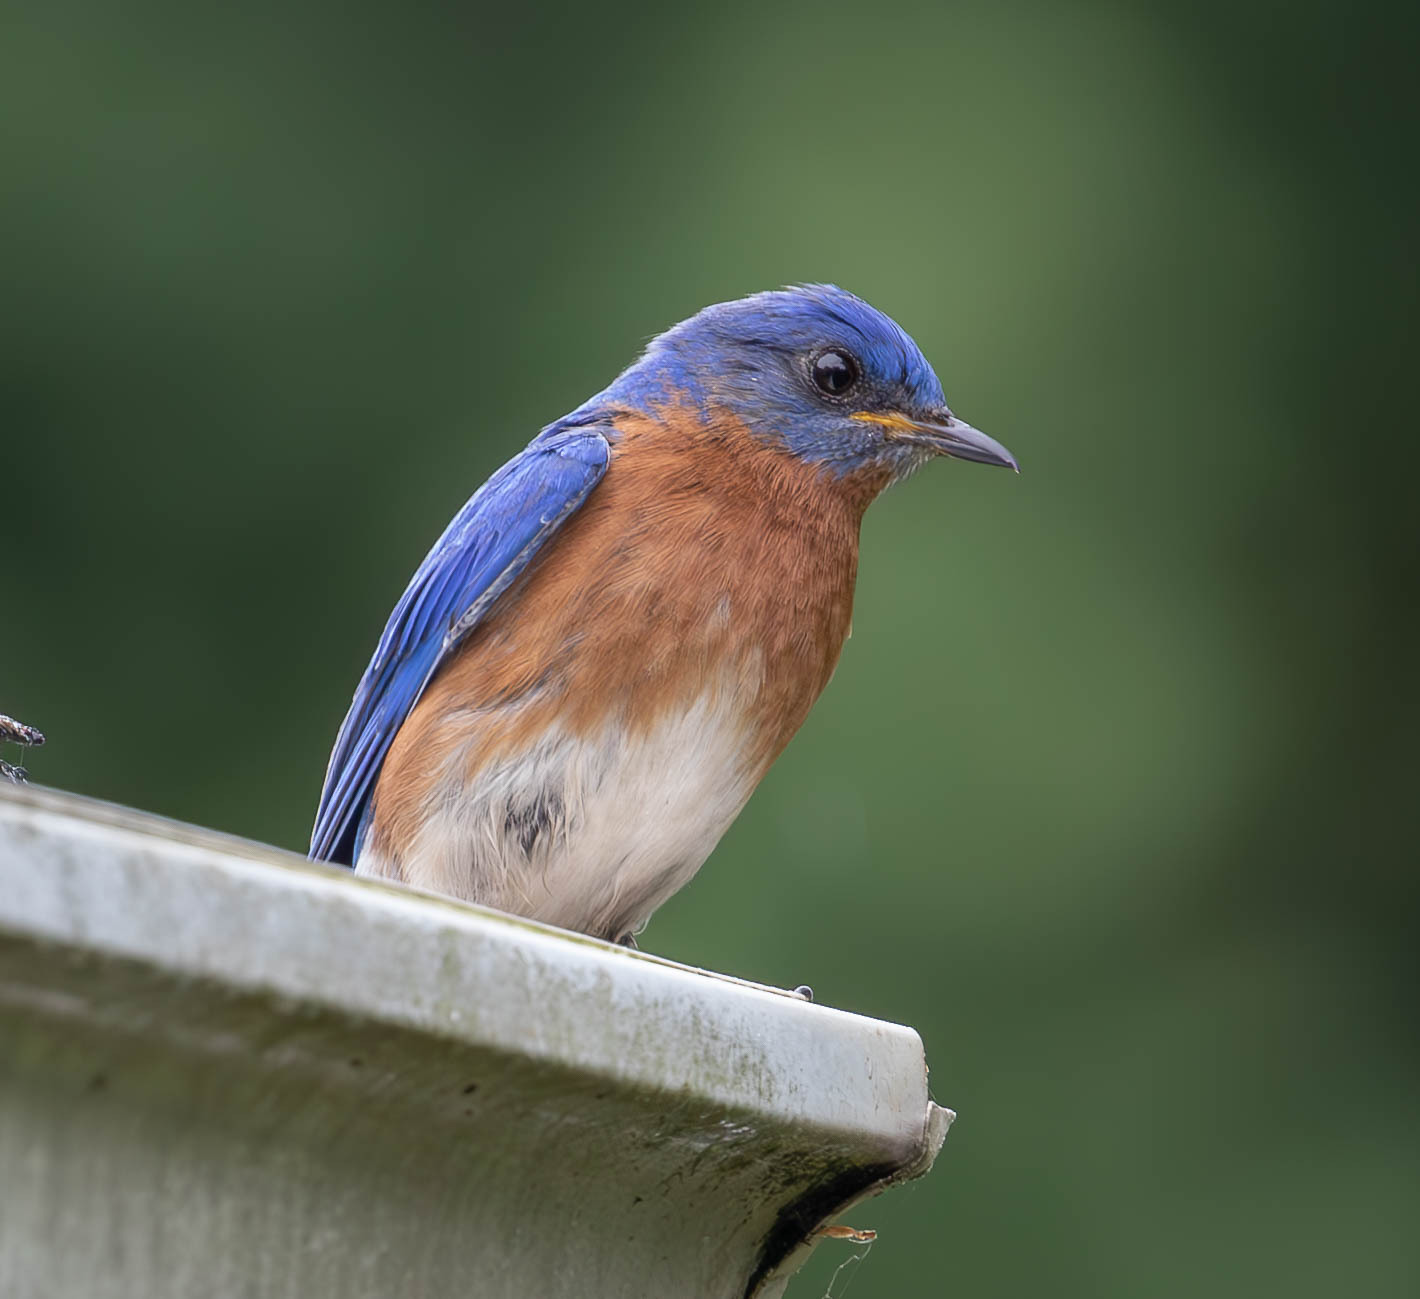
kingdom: Animalia
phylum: Chordata
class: Aves
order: Passeriformes
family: Turdidae
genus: Sialia
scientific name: Sialia sialis
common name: Eastern bluebird
